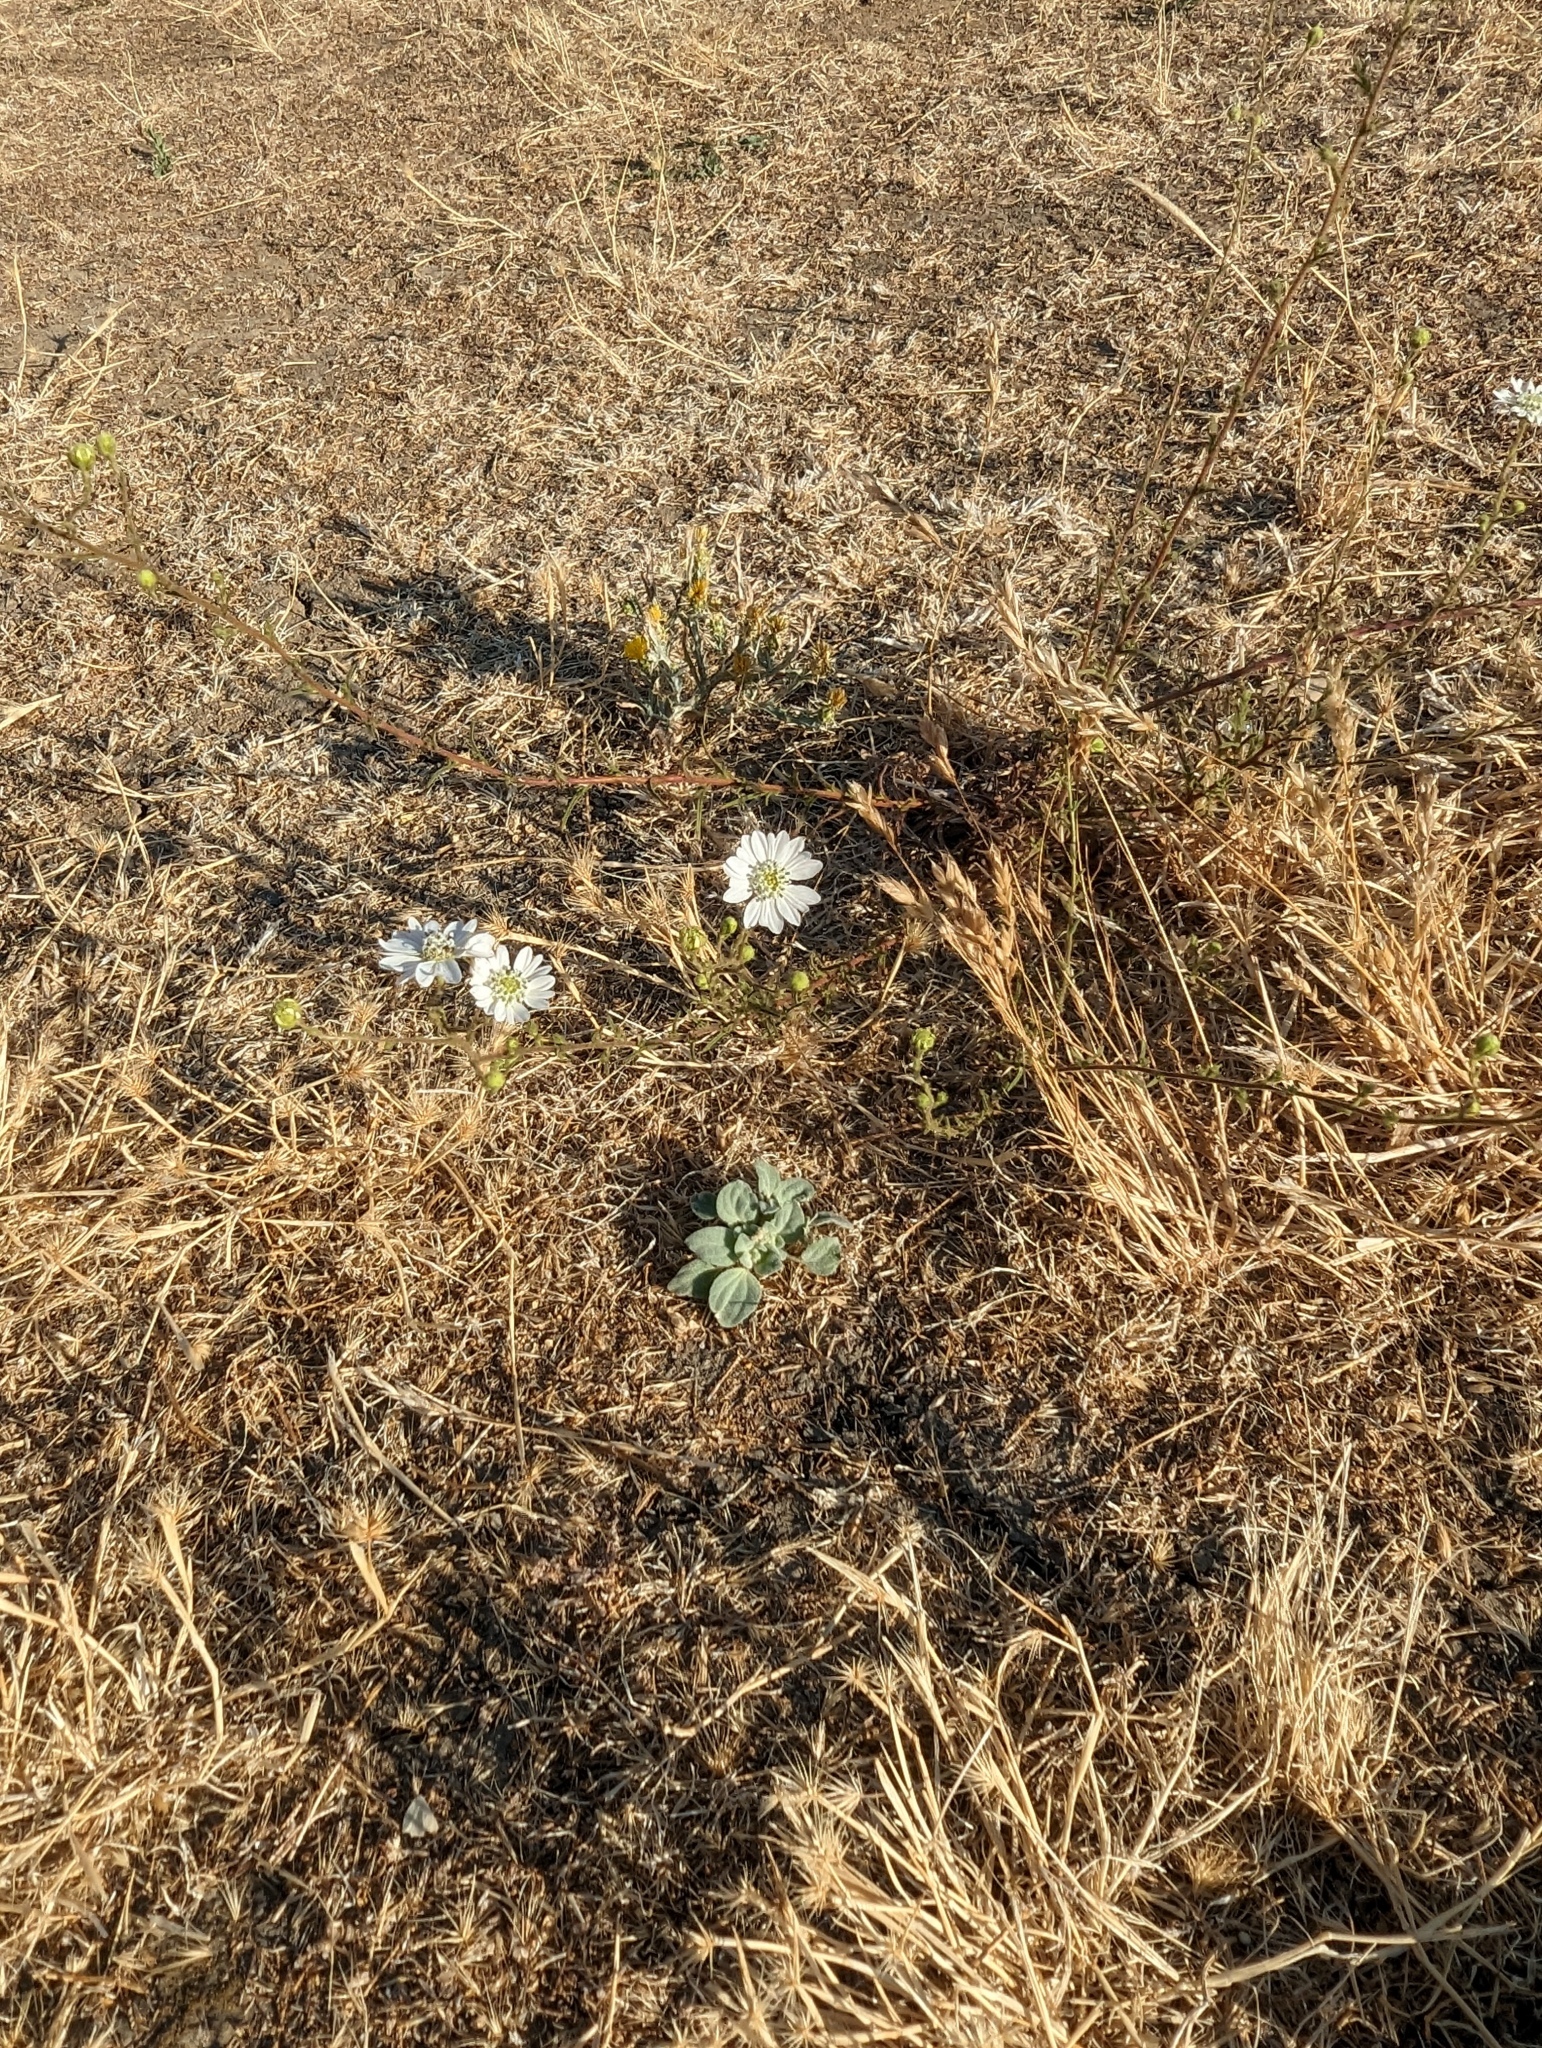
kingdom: Plantae
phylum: Tracheophyta
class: Magnoliopsida
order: Asterales
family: Asteraceae
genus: Hemizonia
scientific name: Hemizonia congesta
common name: Hayfield tarweed
